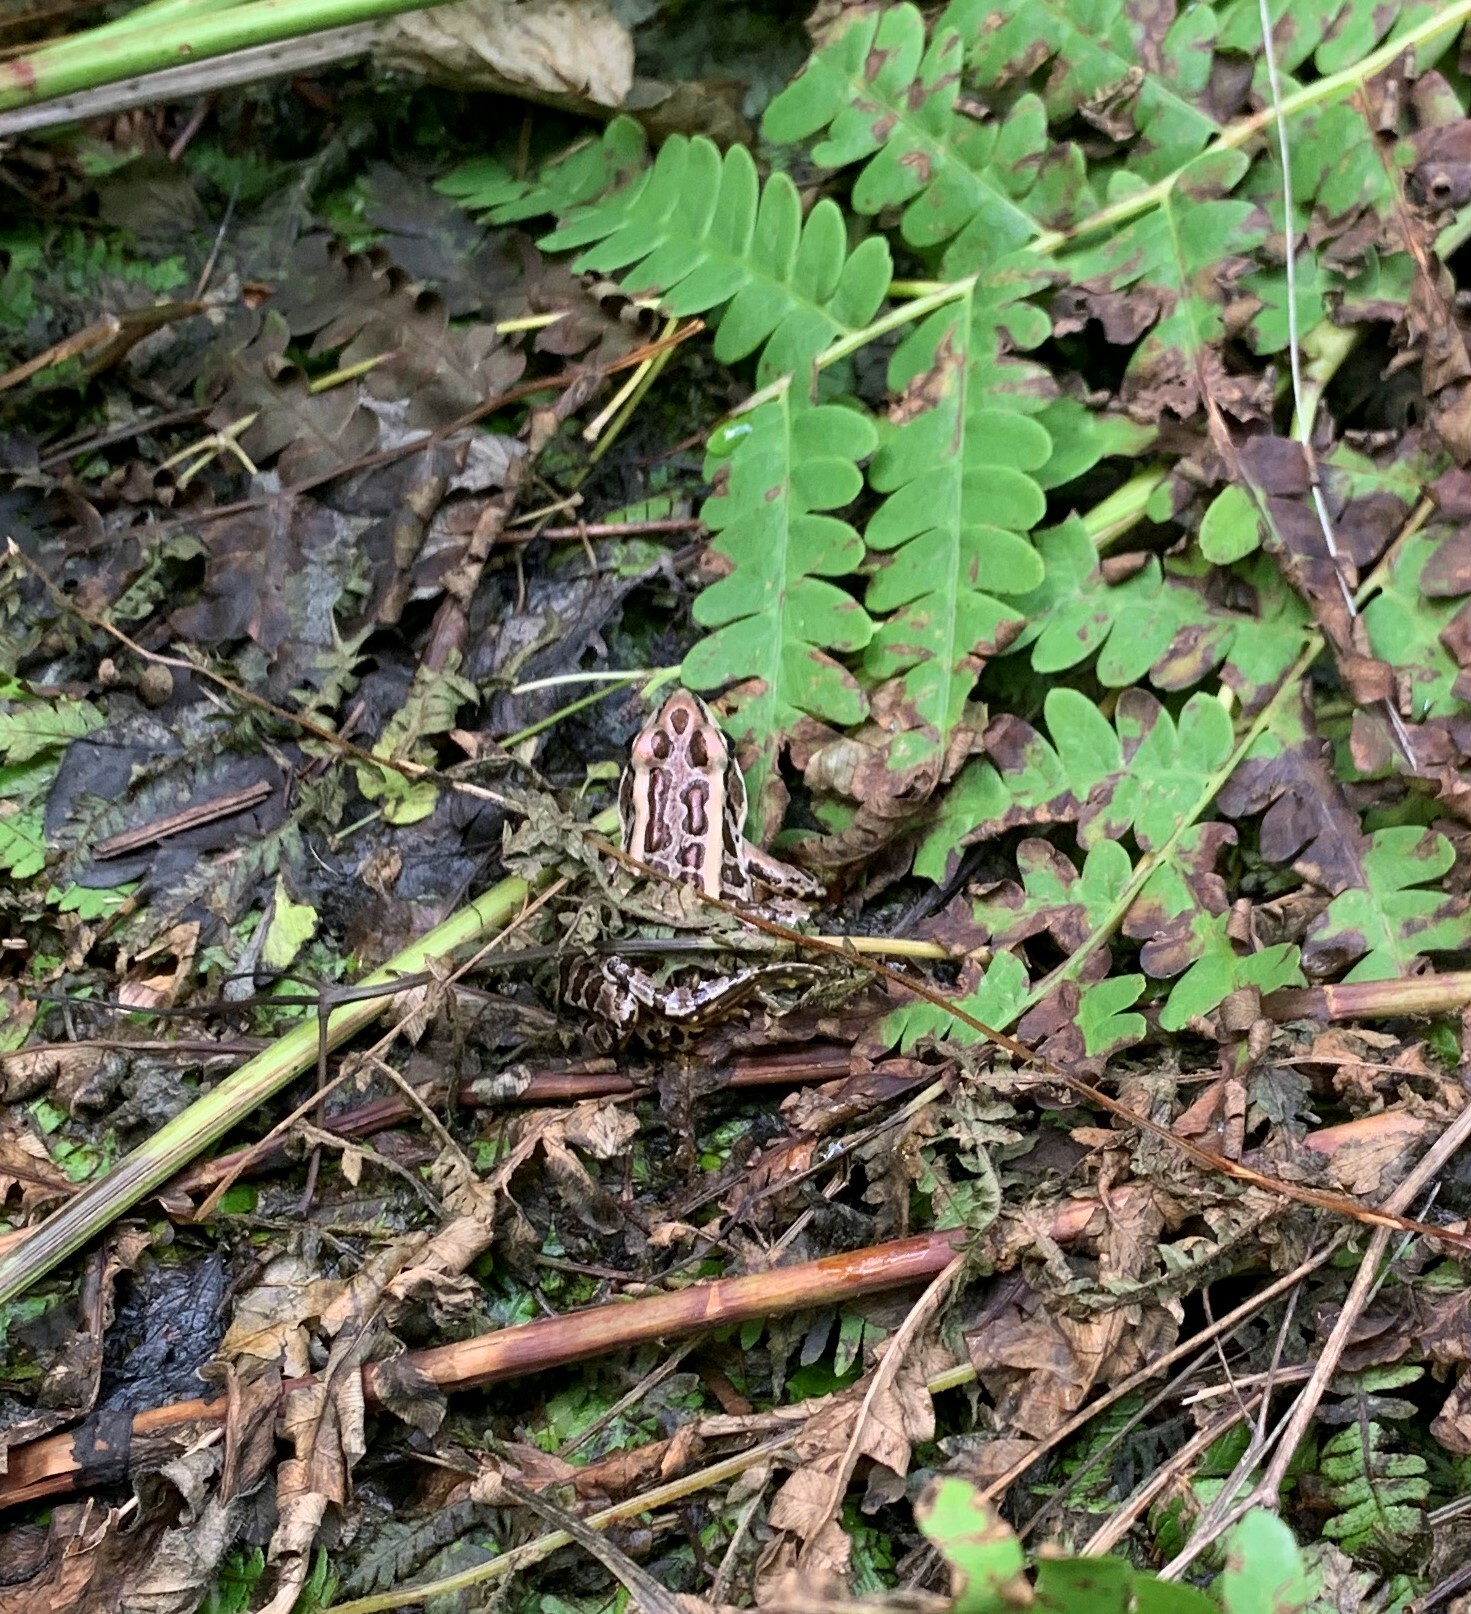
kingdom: Animalia
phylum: Chordata
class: Amphibia
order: Anura
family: Ranidae
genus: Lithobates
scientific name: Lithobates palustris
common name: Pickerel frog
